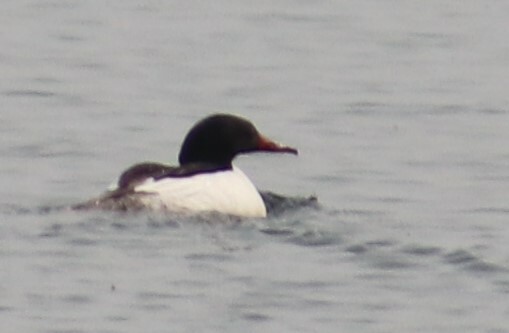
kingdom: Animalia
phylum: Chordata
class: Aves
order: Anseriformes
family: Anatidae
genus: Mergus
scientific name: Mergus merganser
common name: Common merganser
